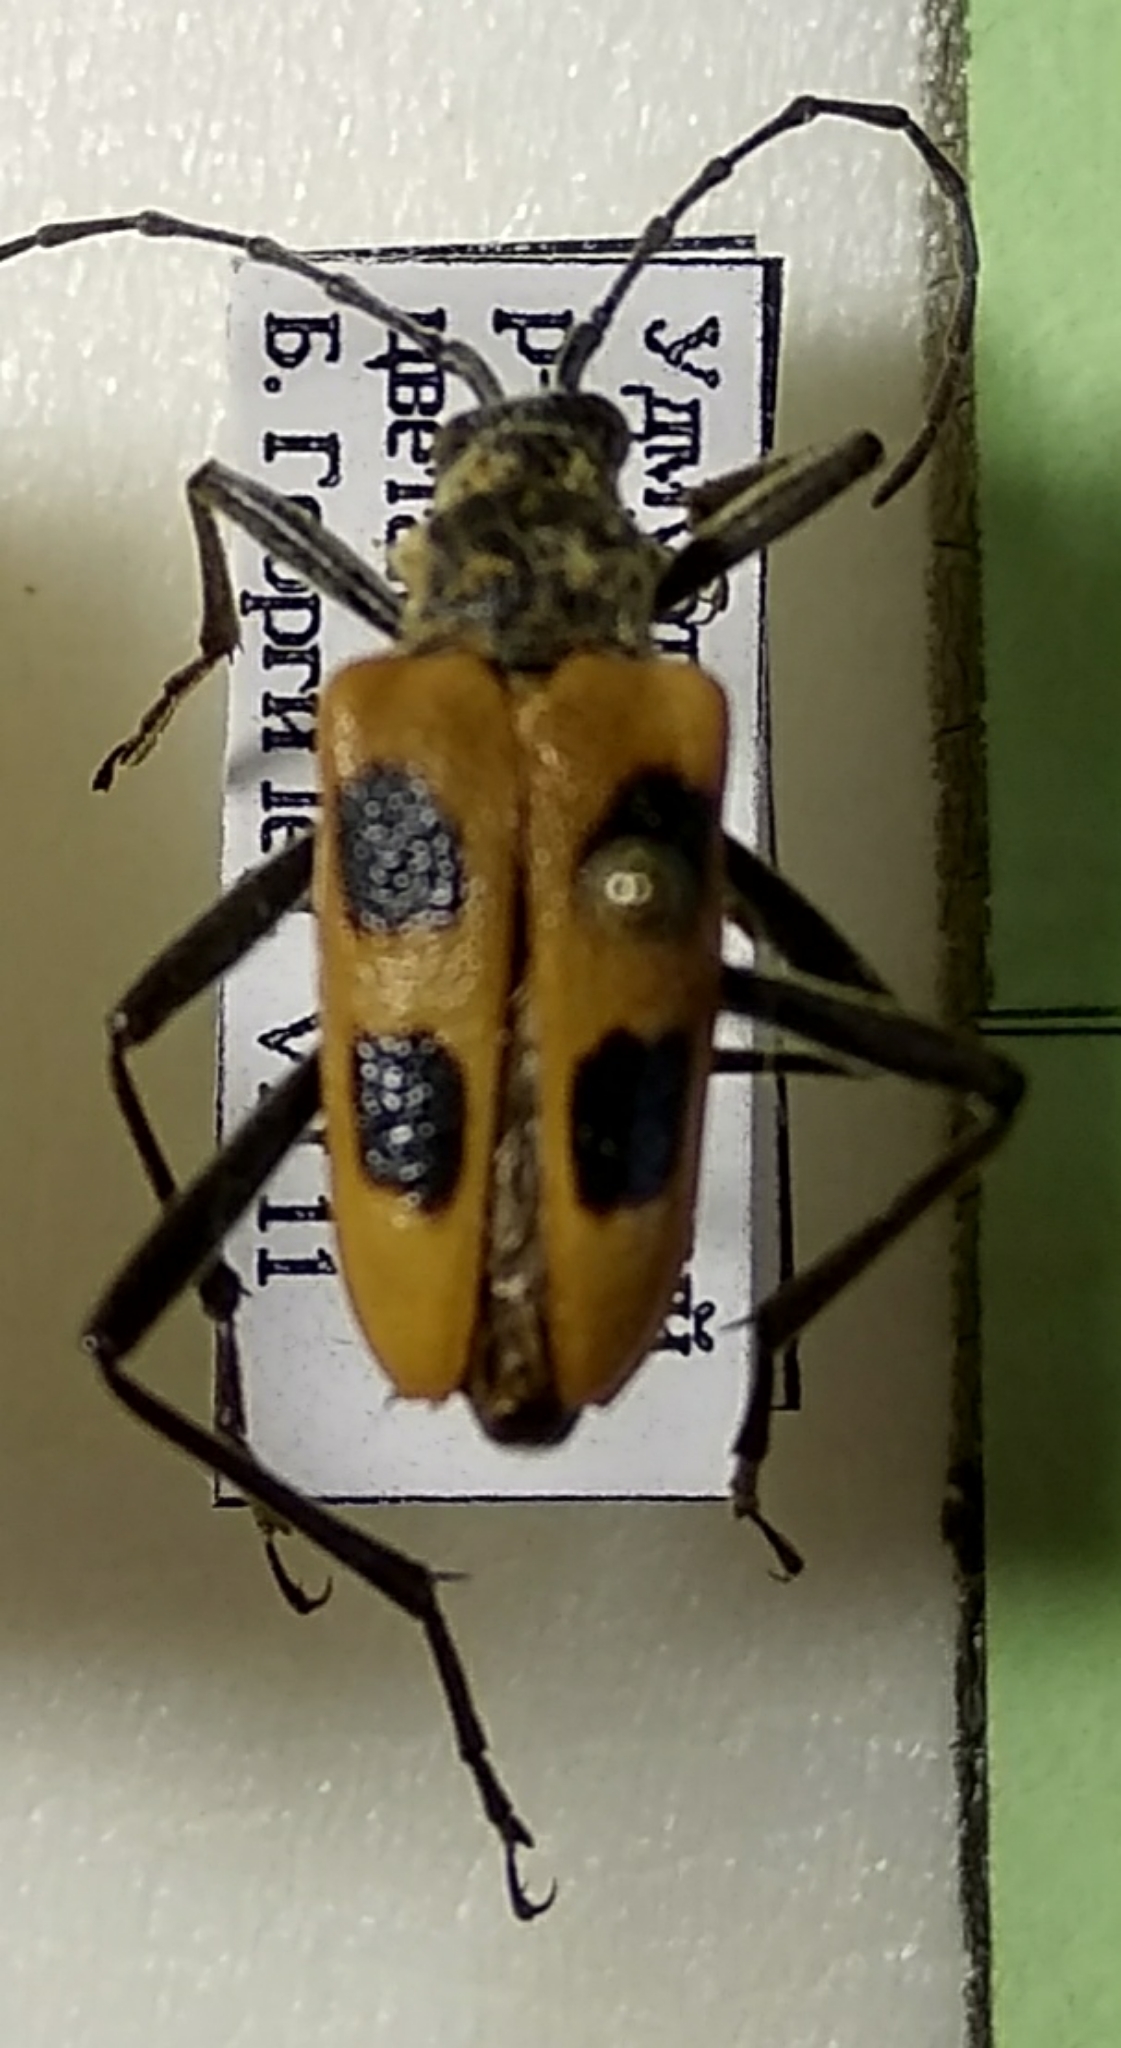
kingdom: Animalia
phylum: Arthropoda
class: Insecta
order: Coleoptera
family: Cerambycidae
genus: Pachyta
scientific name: Pachyta quadrimaculata
